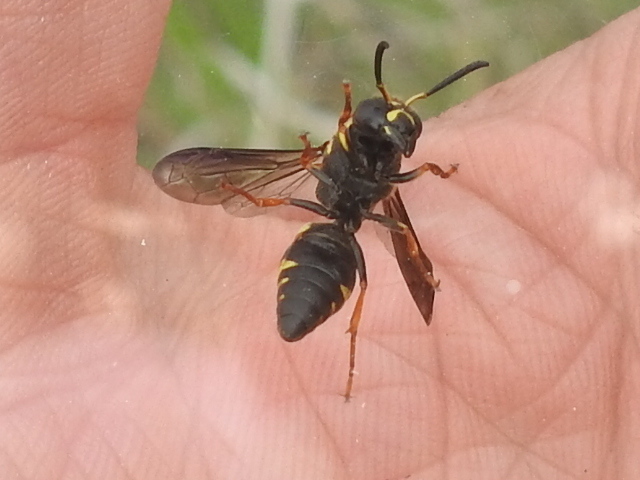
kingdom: Animalia
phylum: Arthropoda
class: Insecta
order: Hymenoptera
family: Eumenidae
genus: Euodynerus
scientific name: Euodynerus foraminatus
